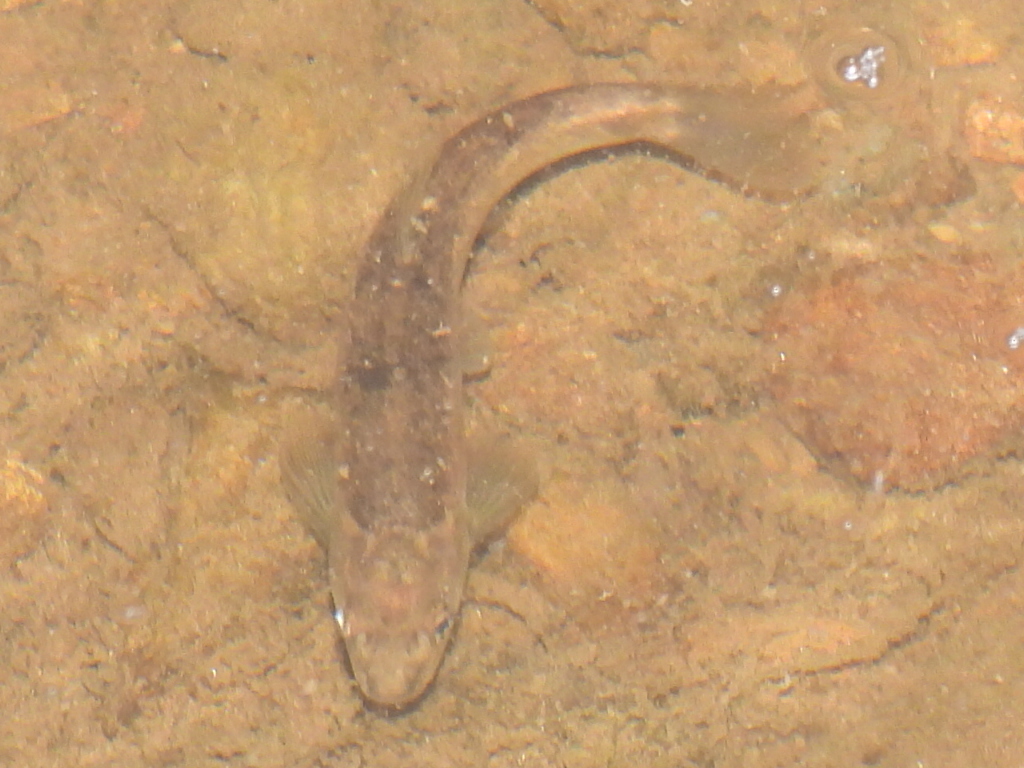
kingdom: Animalia
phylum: Chordata
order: Cypriniformes
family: Cyprinidae
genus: Campostoma
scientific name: Campostoma anomalum
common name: Central stoneroller
